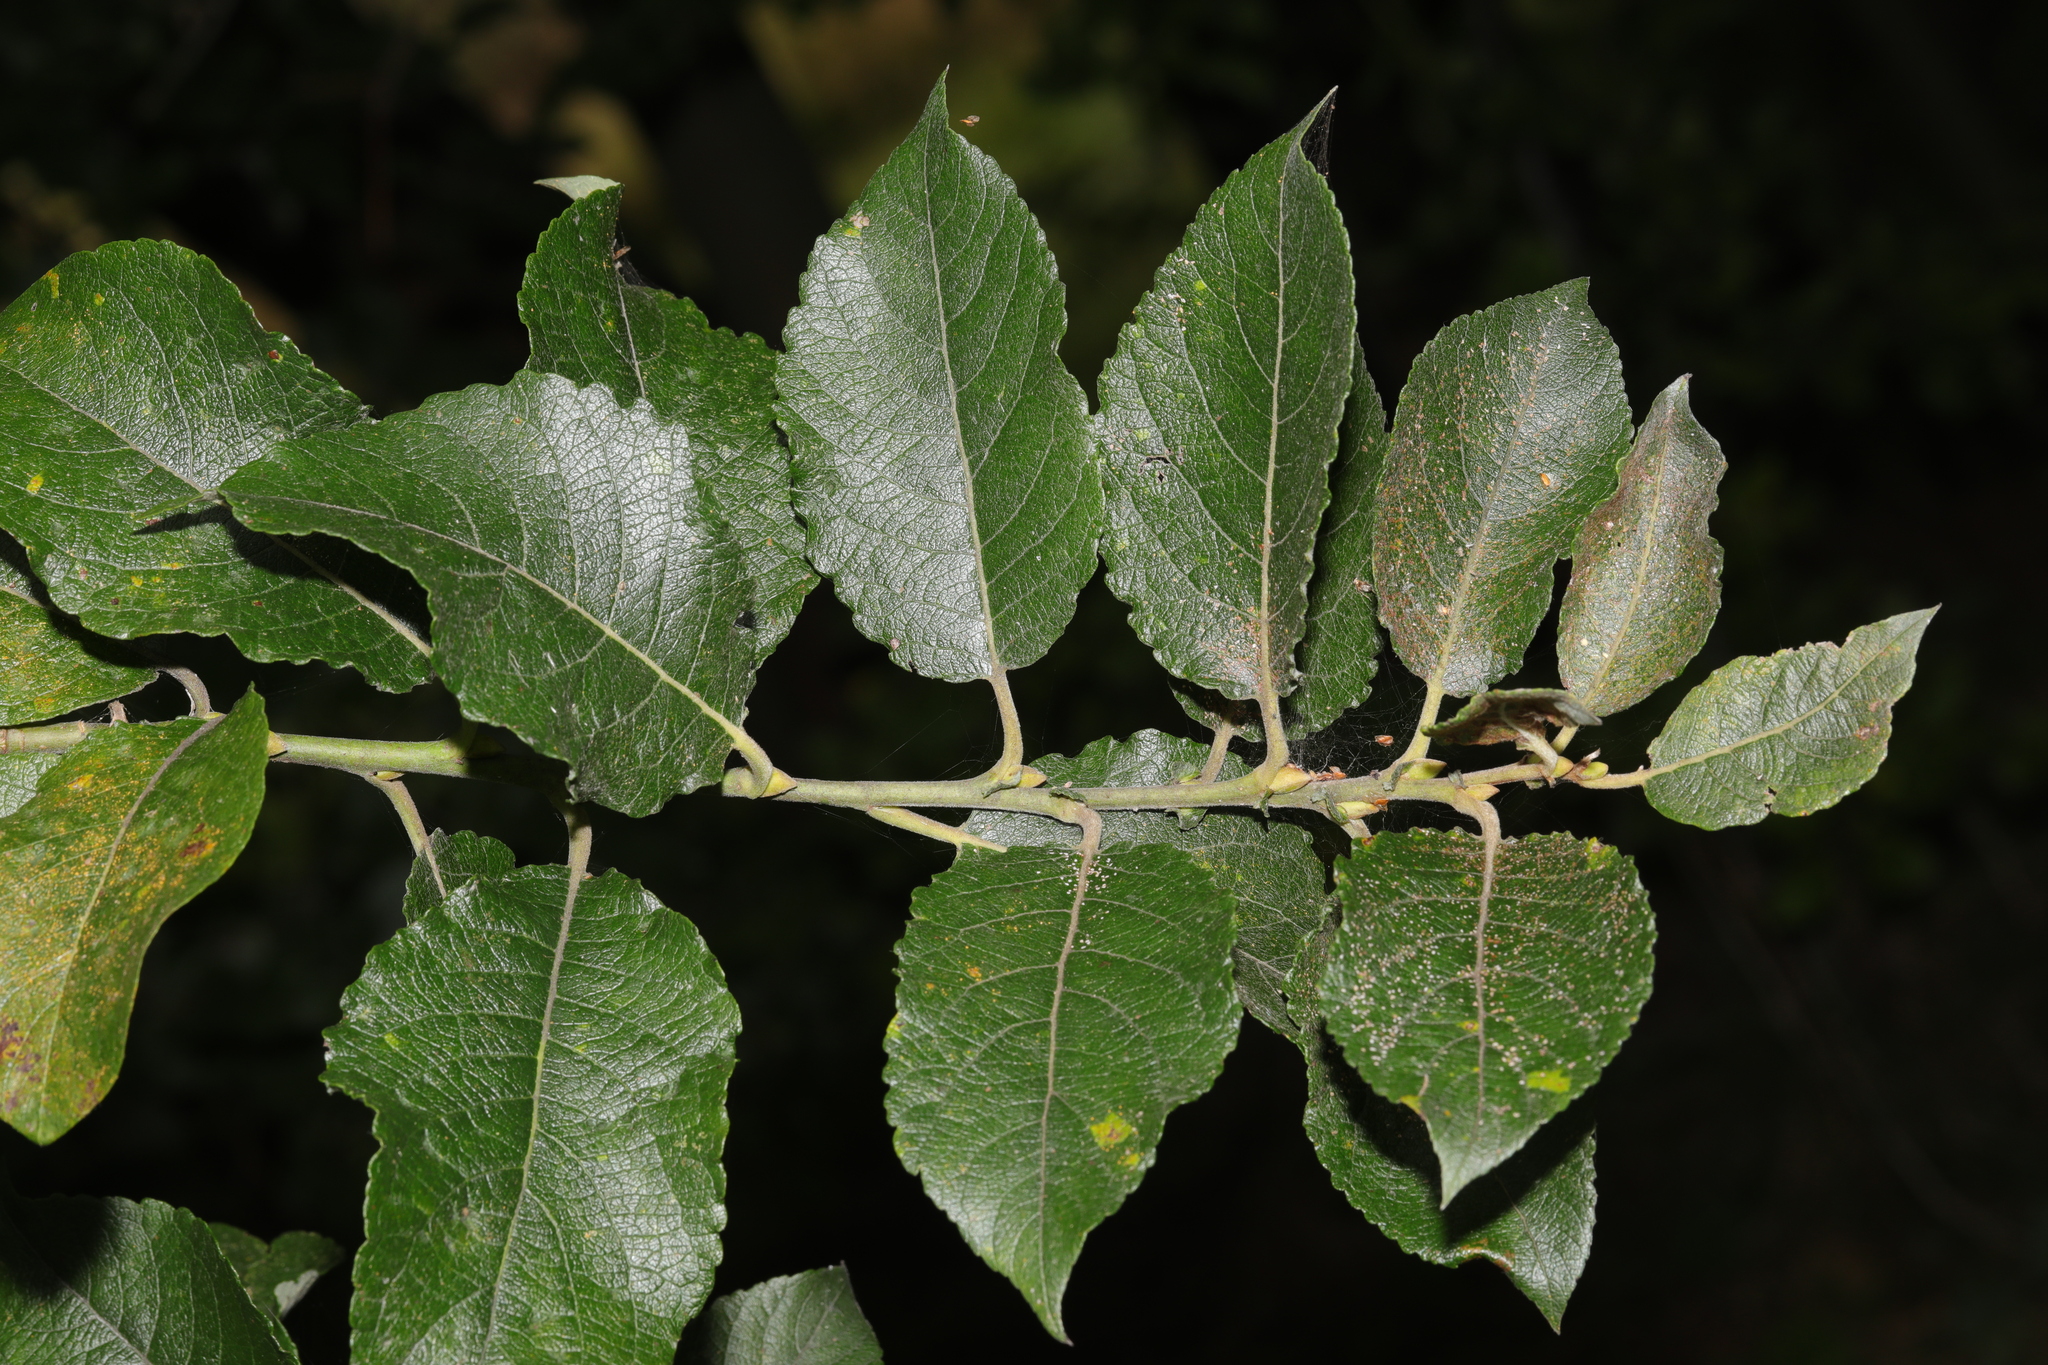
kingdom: Plantae
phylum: Tracheophyta
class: Magnoliopsida
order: Malpighiales
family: Salicaceae
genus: Salix
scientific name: Salix caprea
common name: Goat willow
